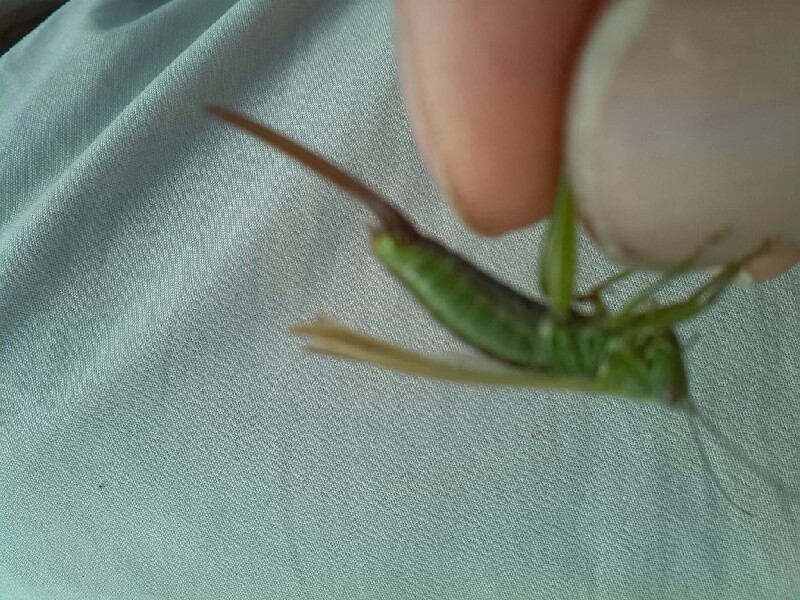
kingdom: Animalia
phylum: Arthropoda
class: Insecta
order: Orthoptera
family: Tettigoniidae
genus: Conocephalus
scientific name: Conocephalus fuscus
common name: Long-winged conehead
